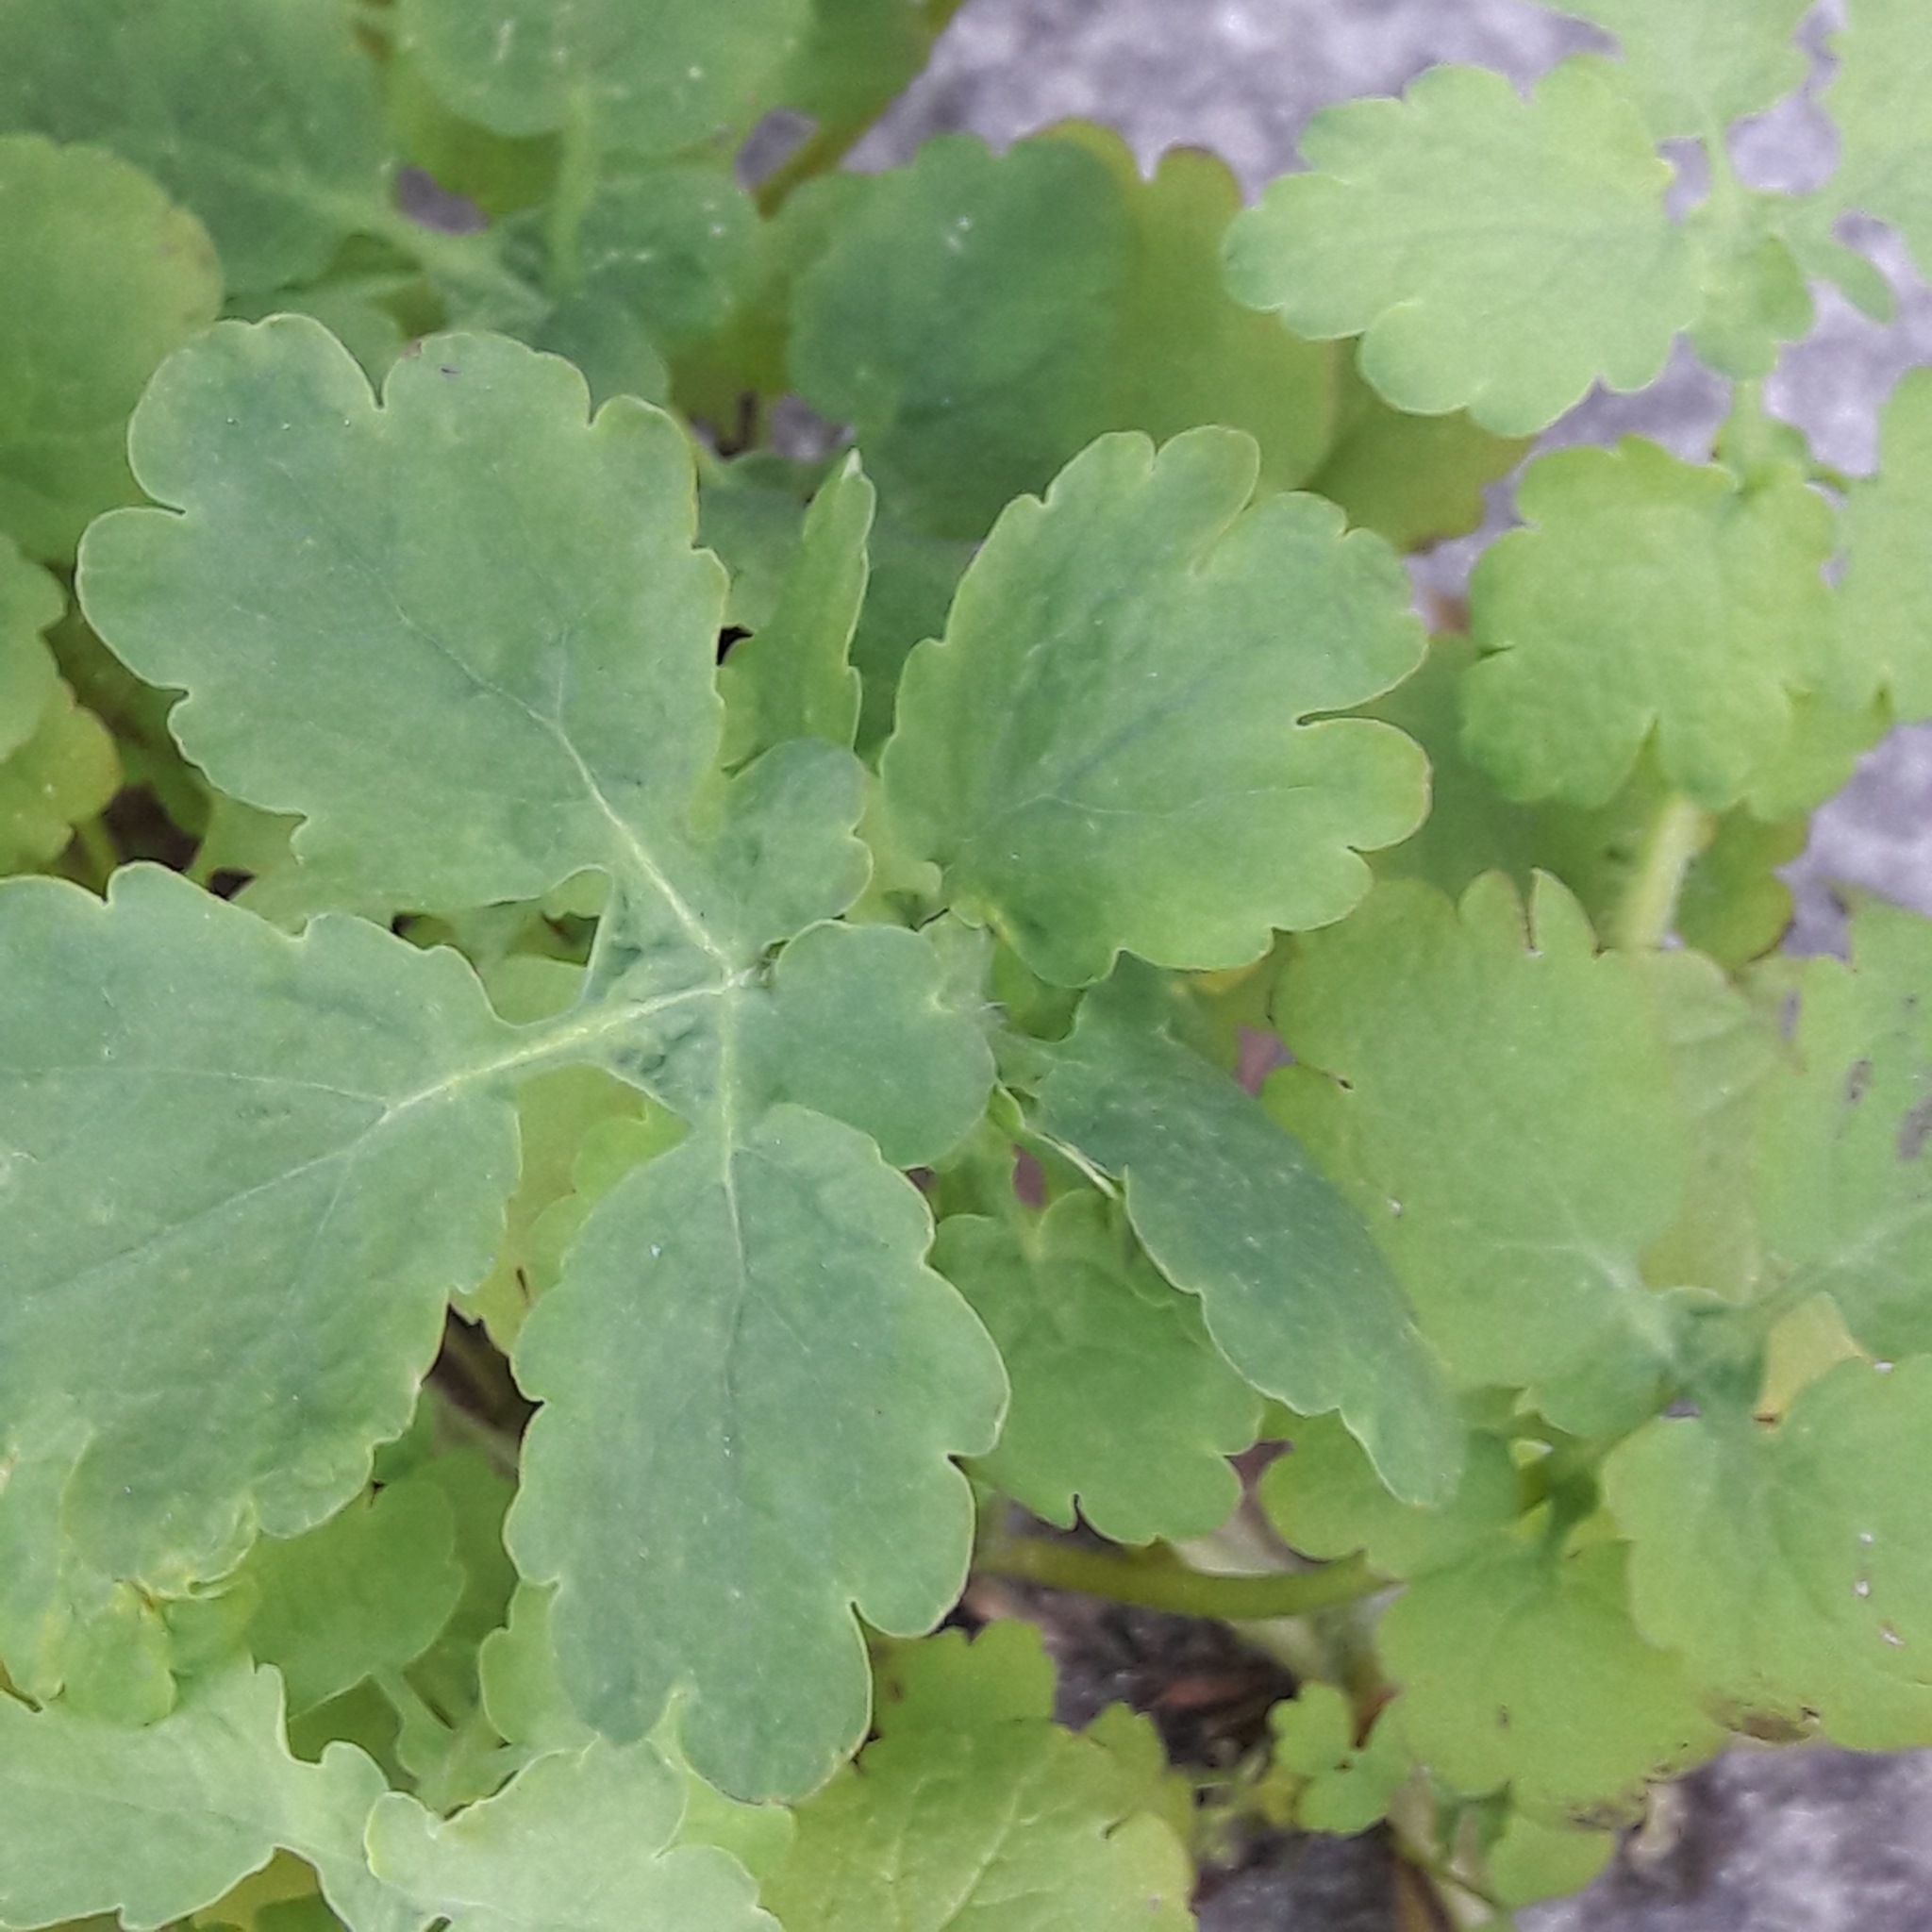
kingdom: Plantae
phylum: Tracheophyta
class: Magnoliopsida
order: Ranunculales
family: Papaveraceae
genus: Chelidonium
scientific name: Chelidonium majus
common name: Greater celandine
